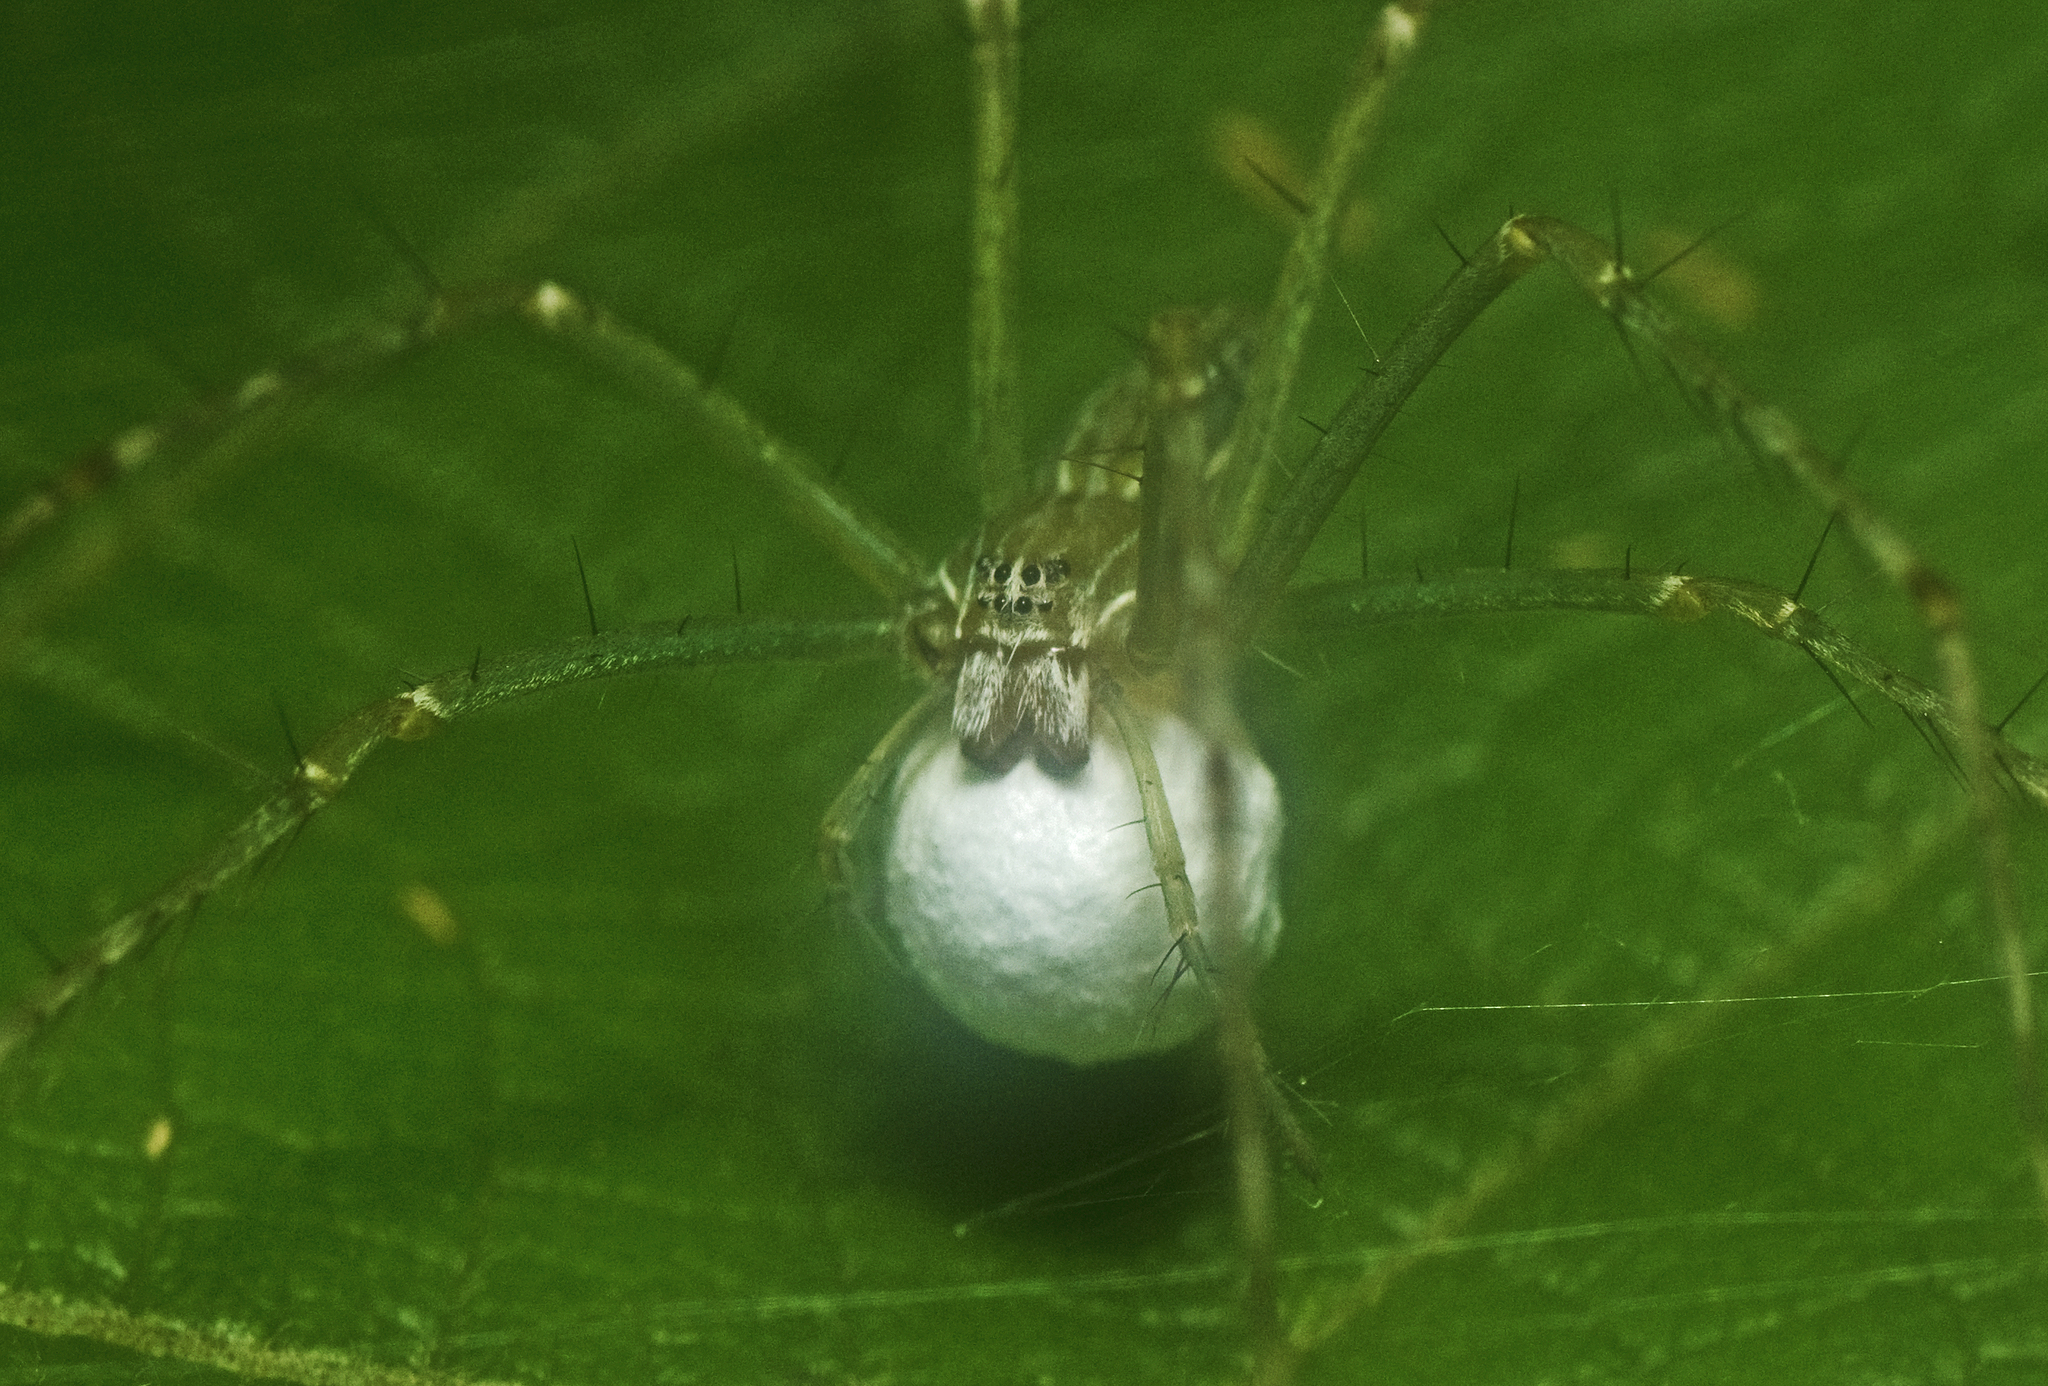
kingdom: Animalia
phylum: Arthropoda
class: Arachnida
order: Araneae
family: Pisauridae
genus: Hygropoda
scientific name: Hygropoda lineata
